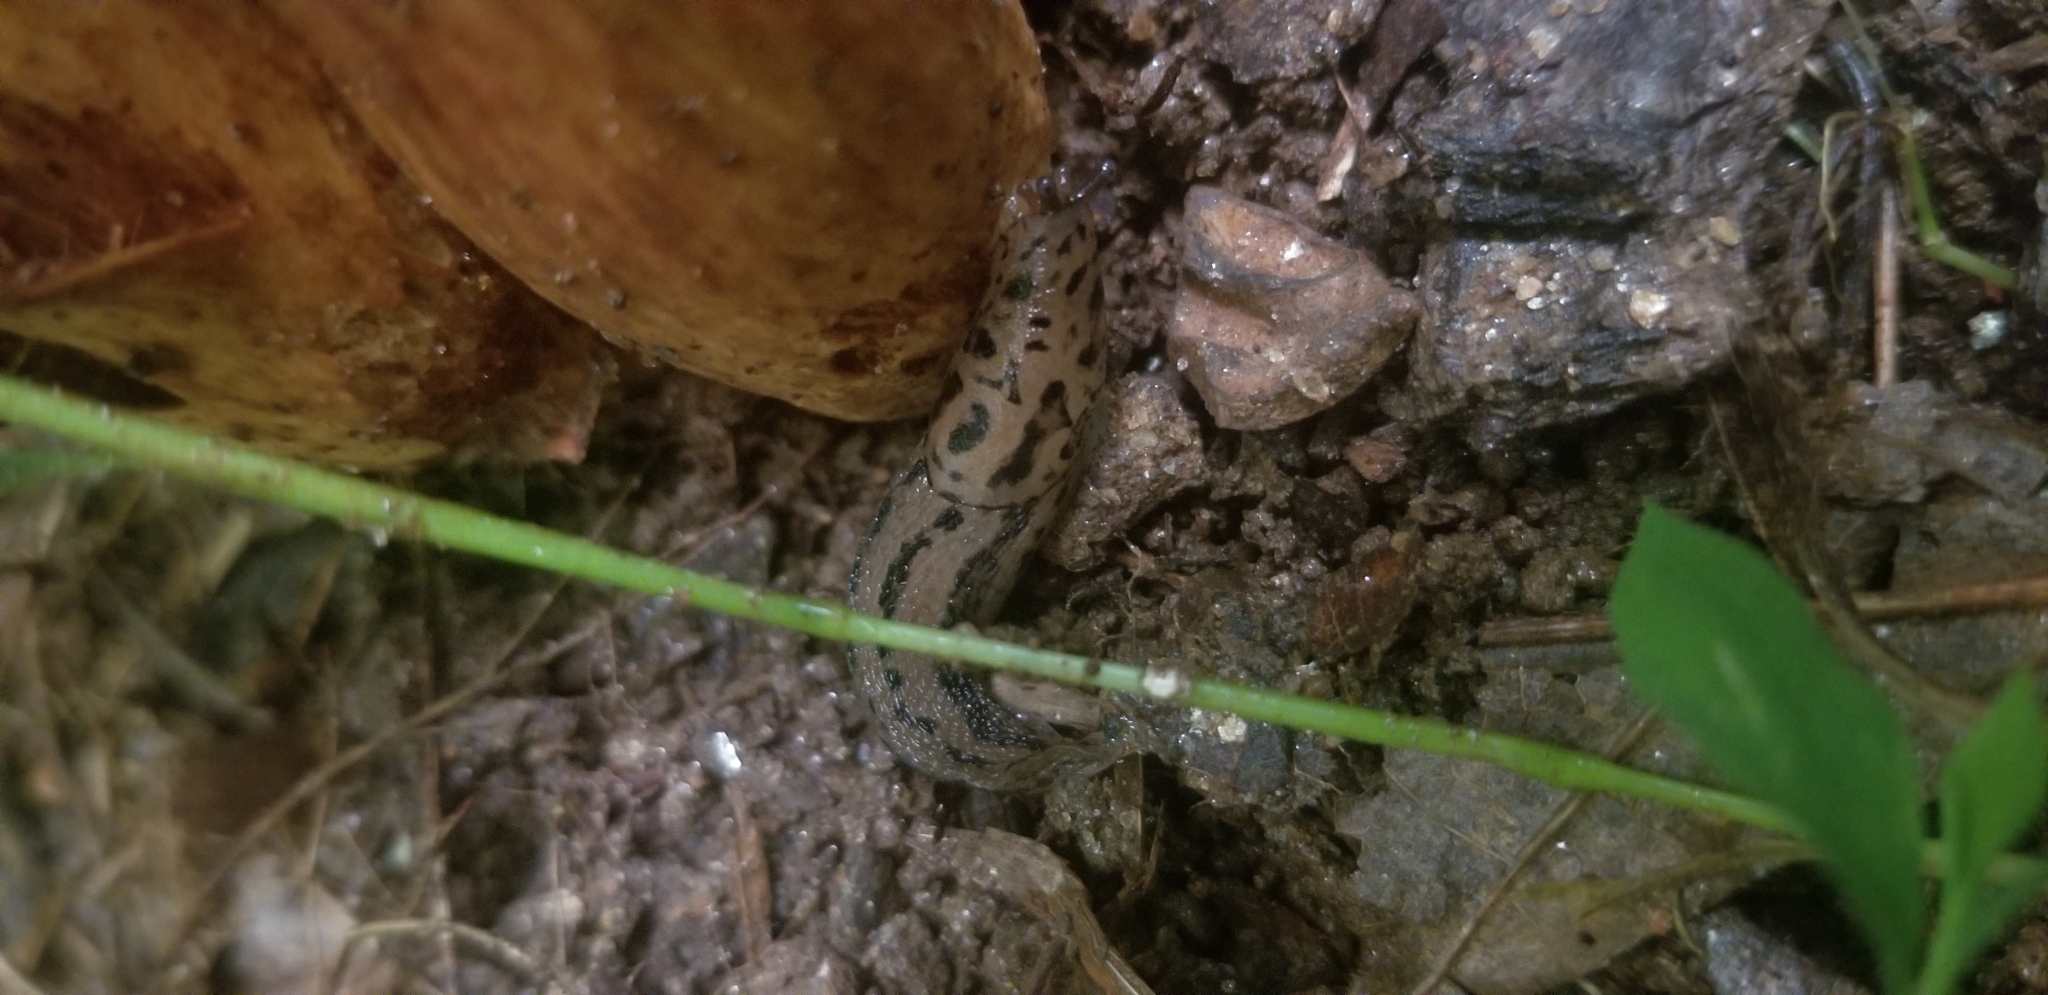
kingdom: Animalia
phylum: Mollusca
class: Gastropoda
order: Stylommatophora
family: Limacidae
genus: Limax
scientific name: Limax maximus
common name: Great grey slug
